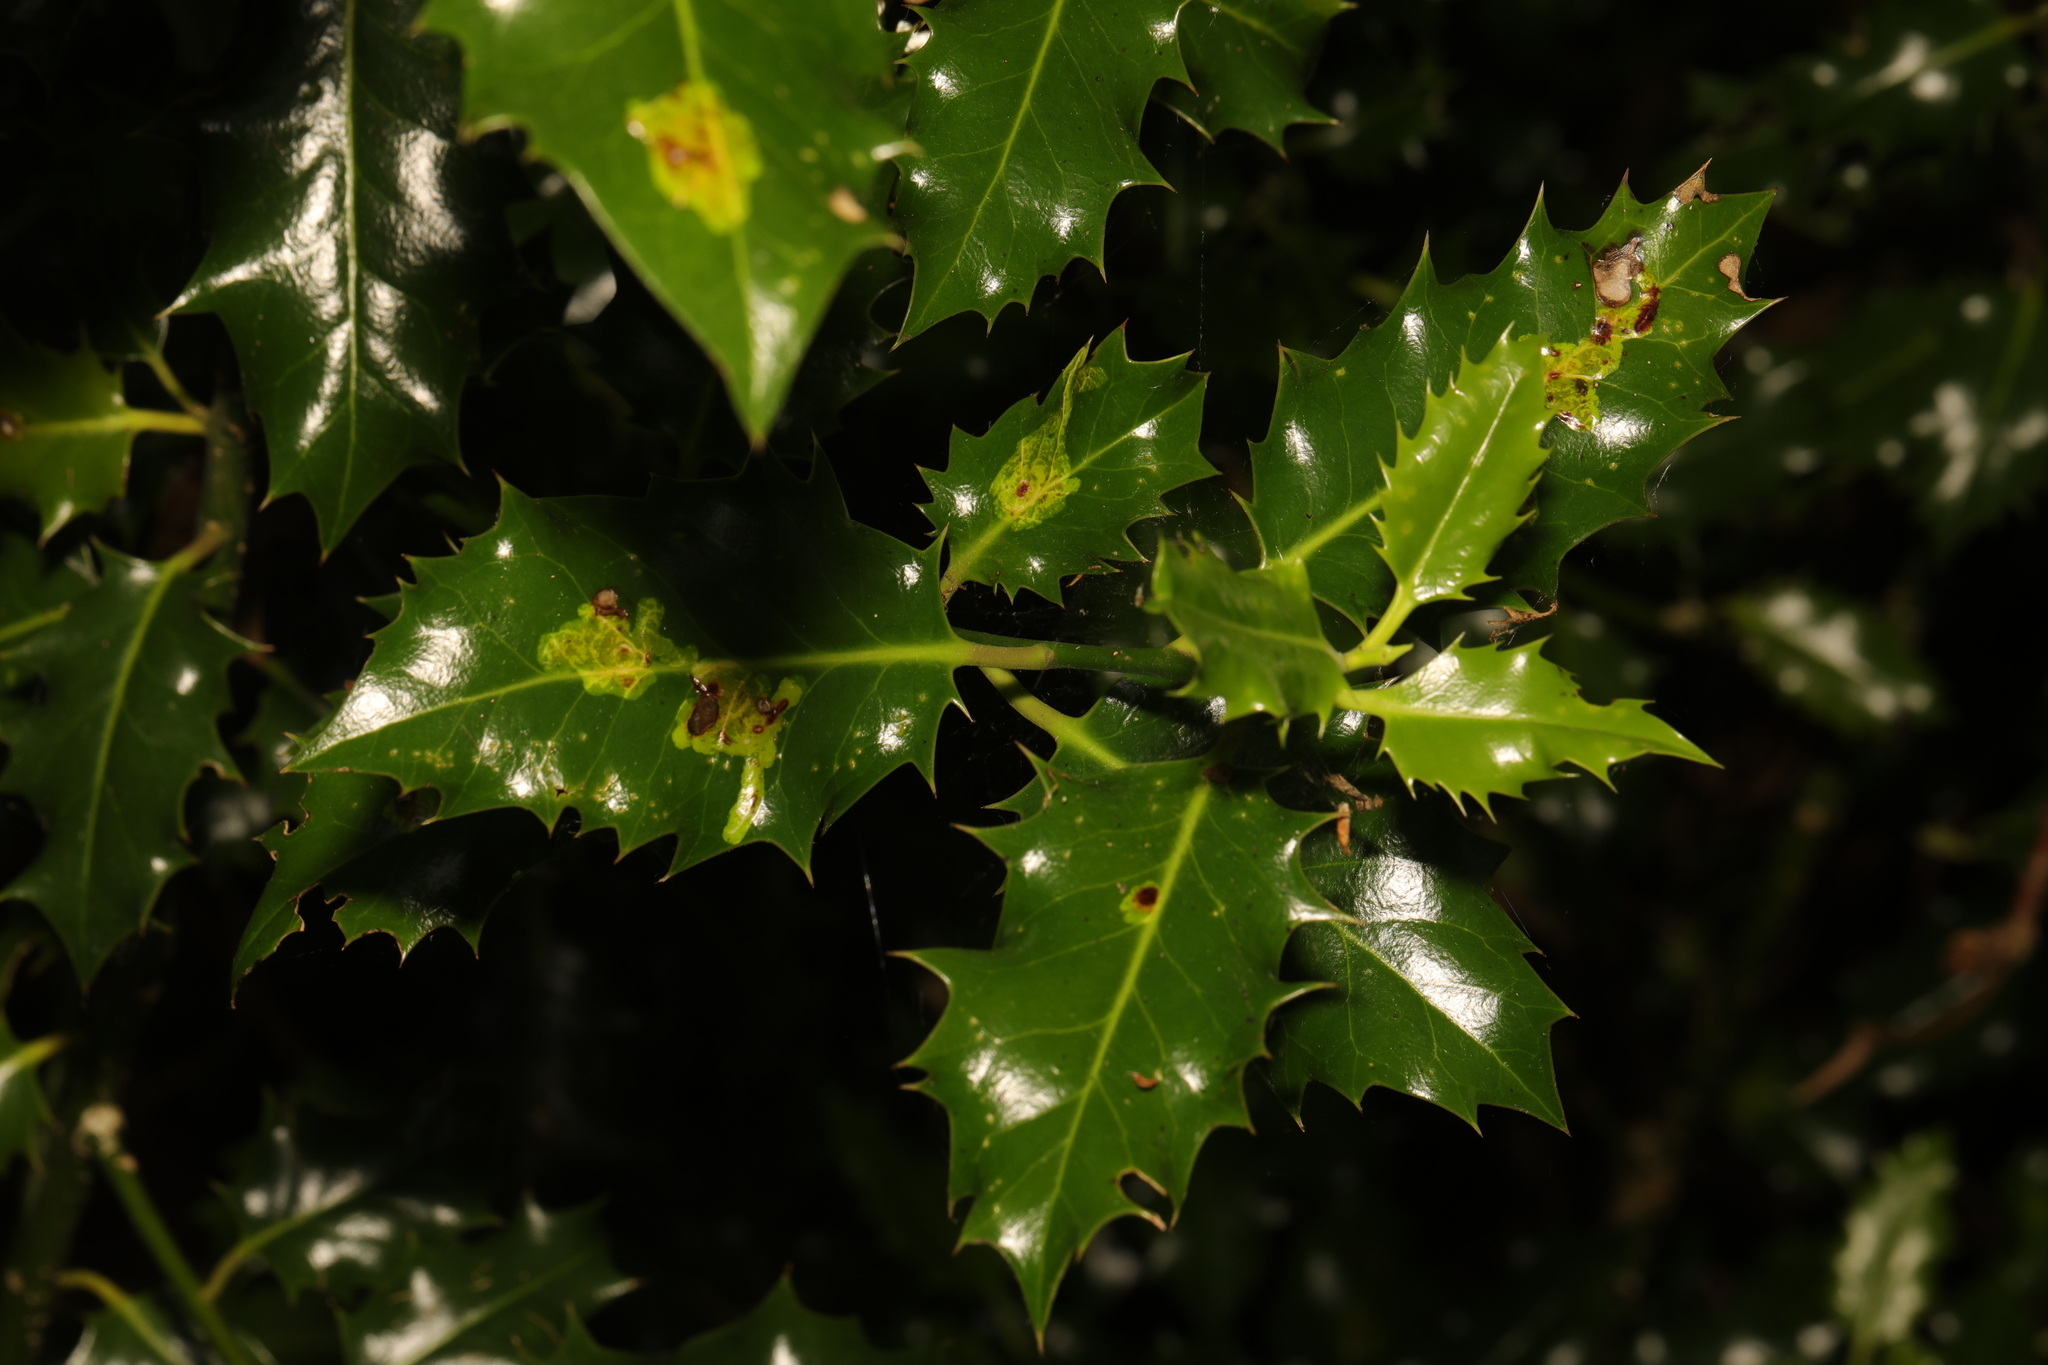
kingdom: Plantae
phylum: Tracheophyta
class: Magnoliopsida
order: Aquifoliales
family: Aquifoliaceae
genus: Ilex
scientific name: Ilex aquifolium
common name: English holly
